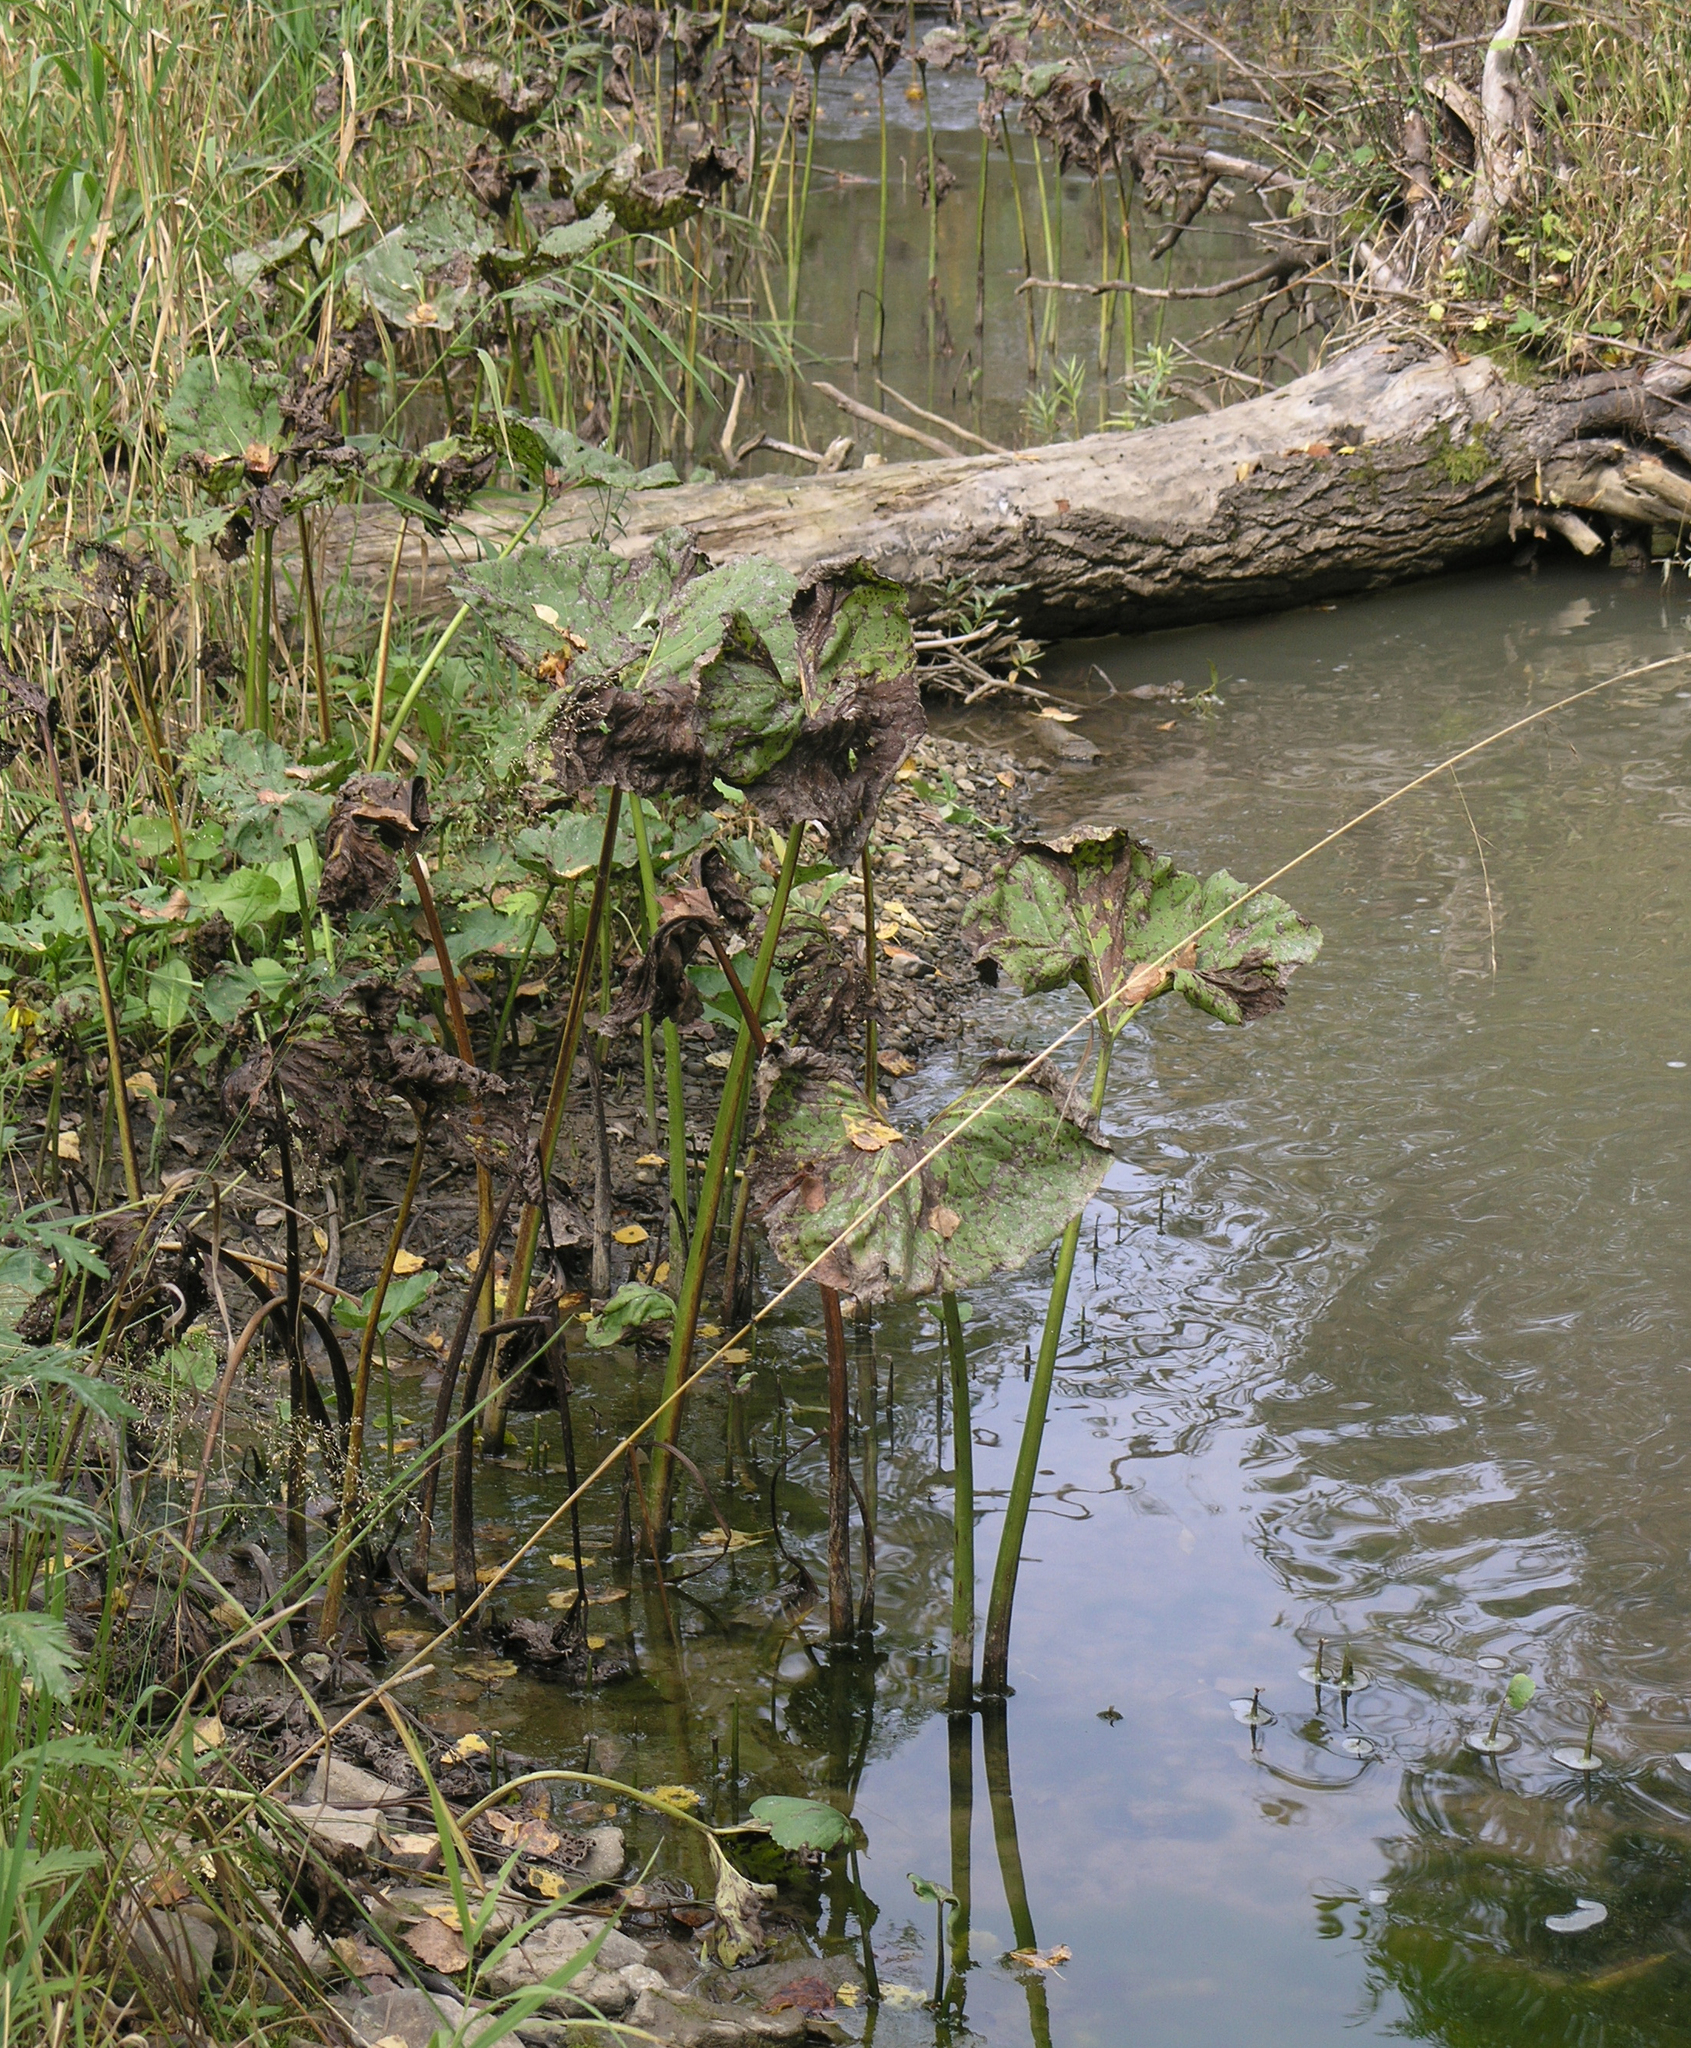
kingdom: Plantae
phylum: Tracheophyta
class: Magnoliopsida
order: Asterales
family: Asteraceae
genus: Petasites
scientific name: Petasites radiatus
